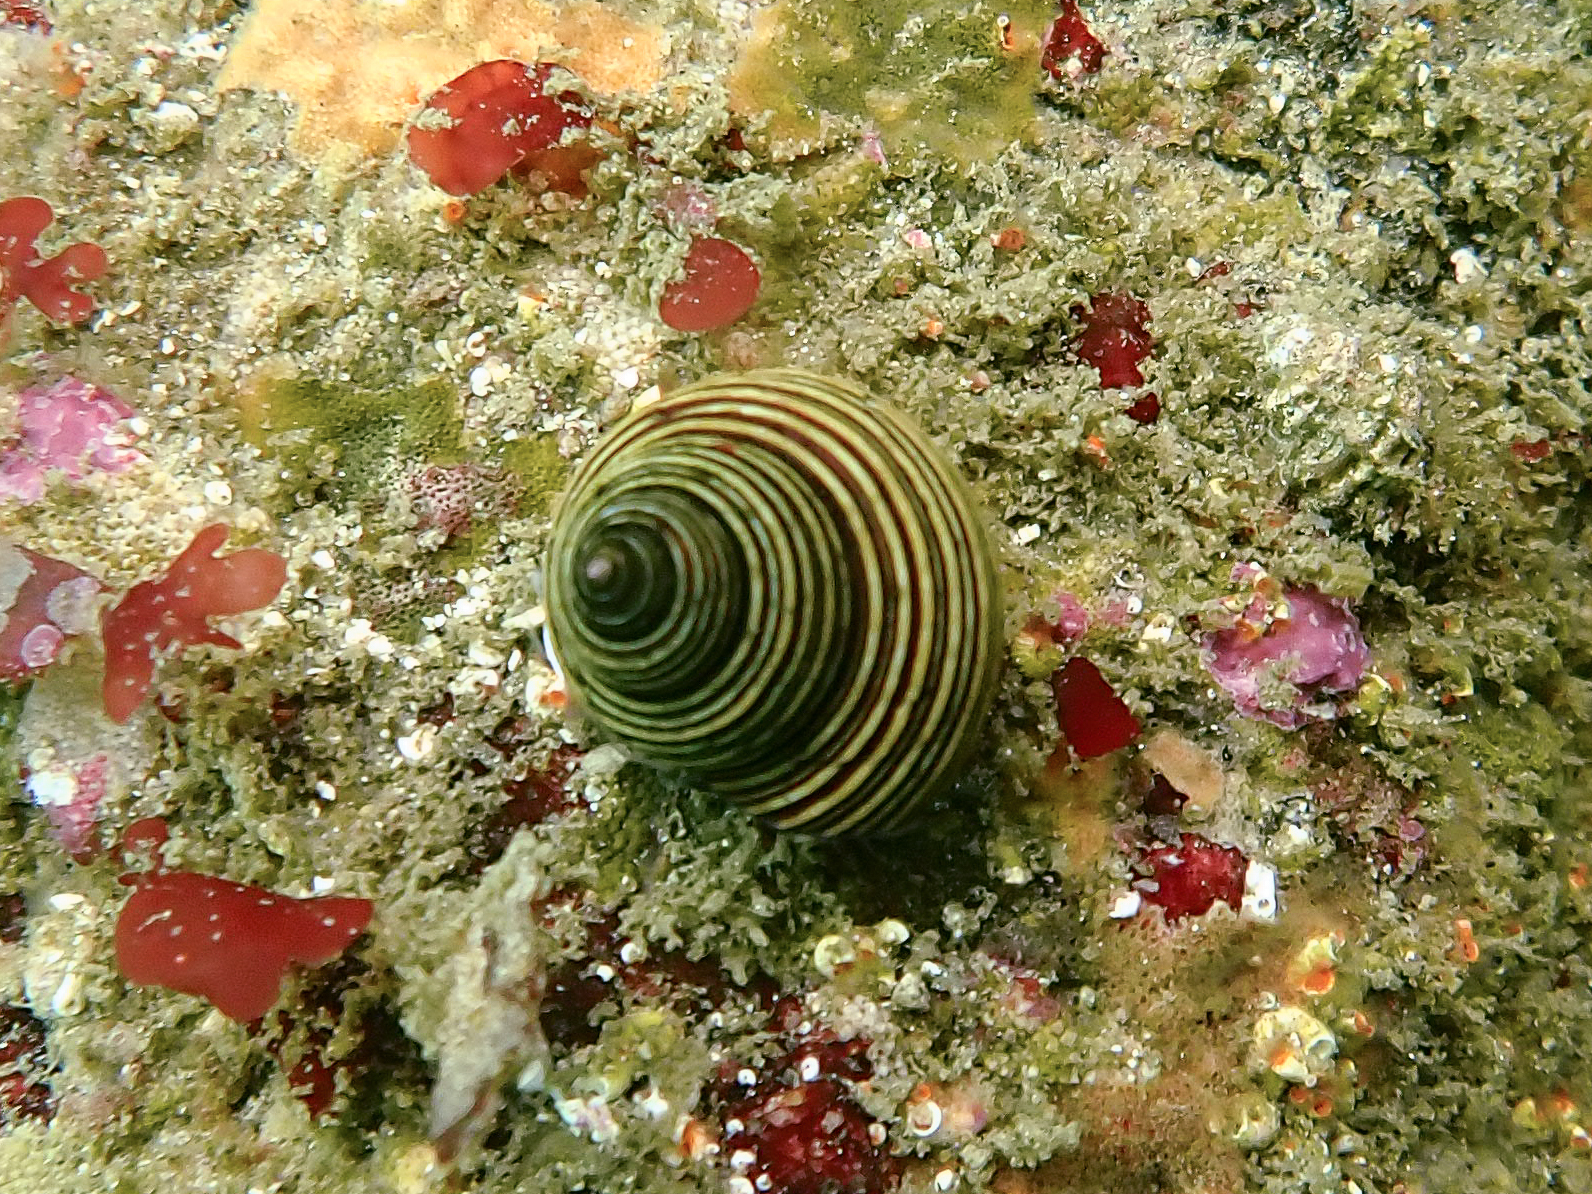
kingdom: Animalia
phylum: Mollusca
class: Gastropoda
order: Trochida
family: Calliostomatidae
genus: Calliostoma
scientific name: Calliostoma ligatum
